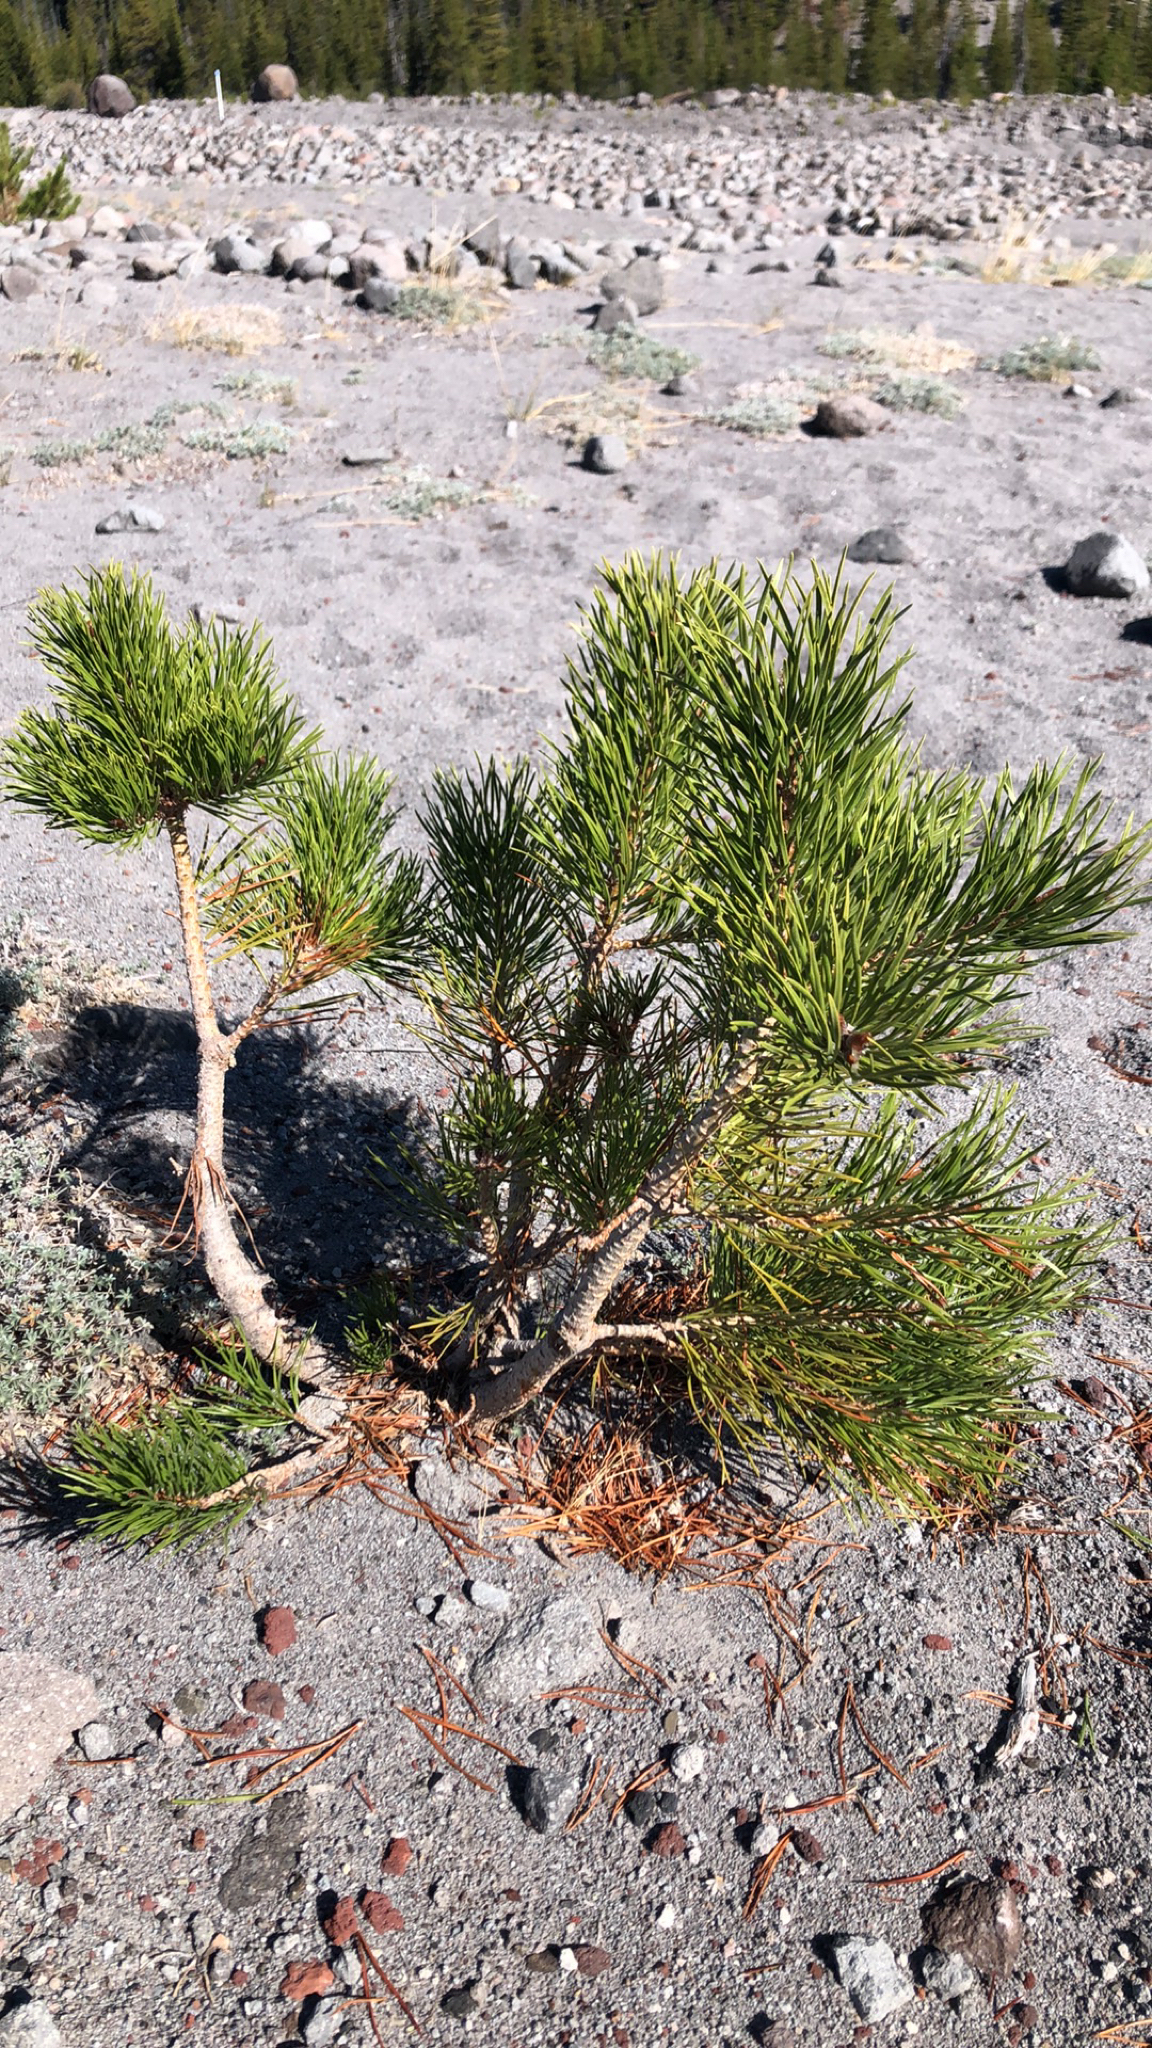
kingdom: Plantae
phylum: Tracheophyta
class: Pinopsida
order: Pinales
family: Pinaceae
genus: Pinus
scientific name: Pinus contorta
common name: Lodgepole pine
